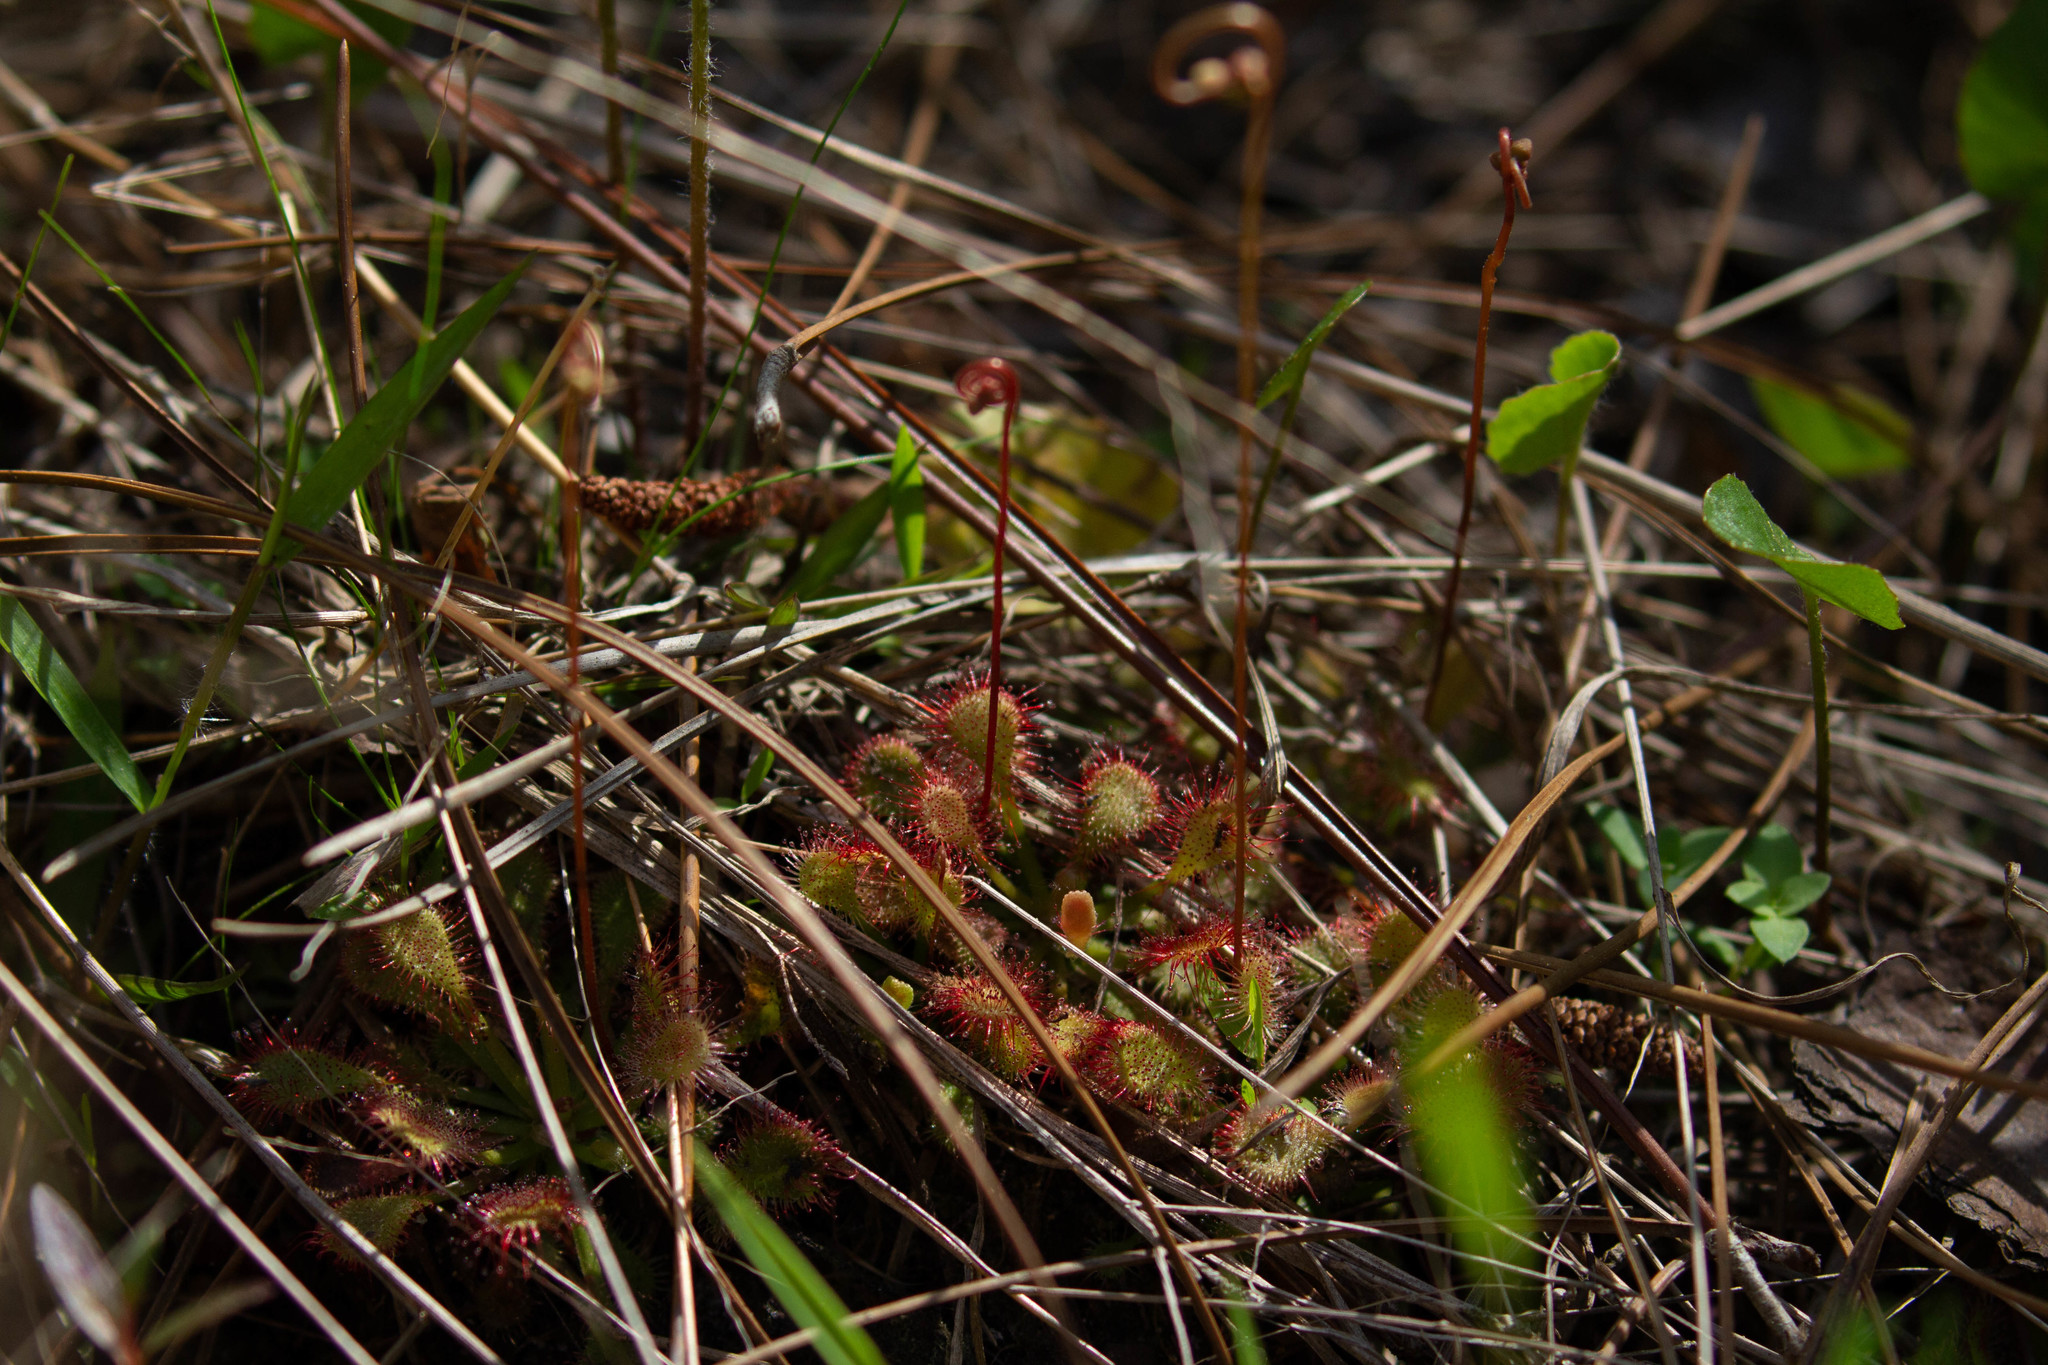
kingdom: Plantae
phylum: Tracheophyta
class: Magnoliopsida
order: Caryophyllales
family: Droseraceae
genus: Drosera
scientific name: Drosera capillaris
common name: Pink sundew
